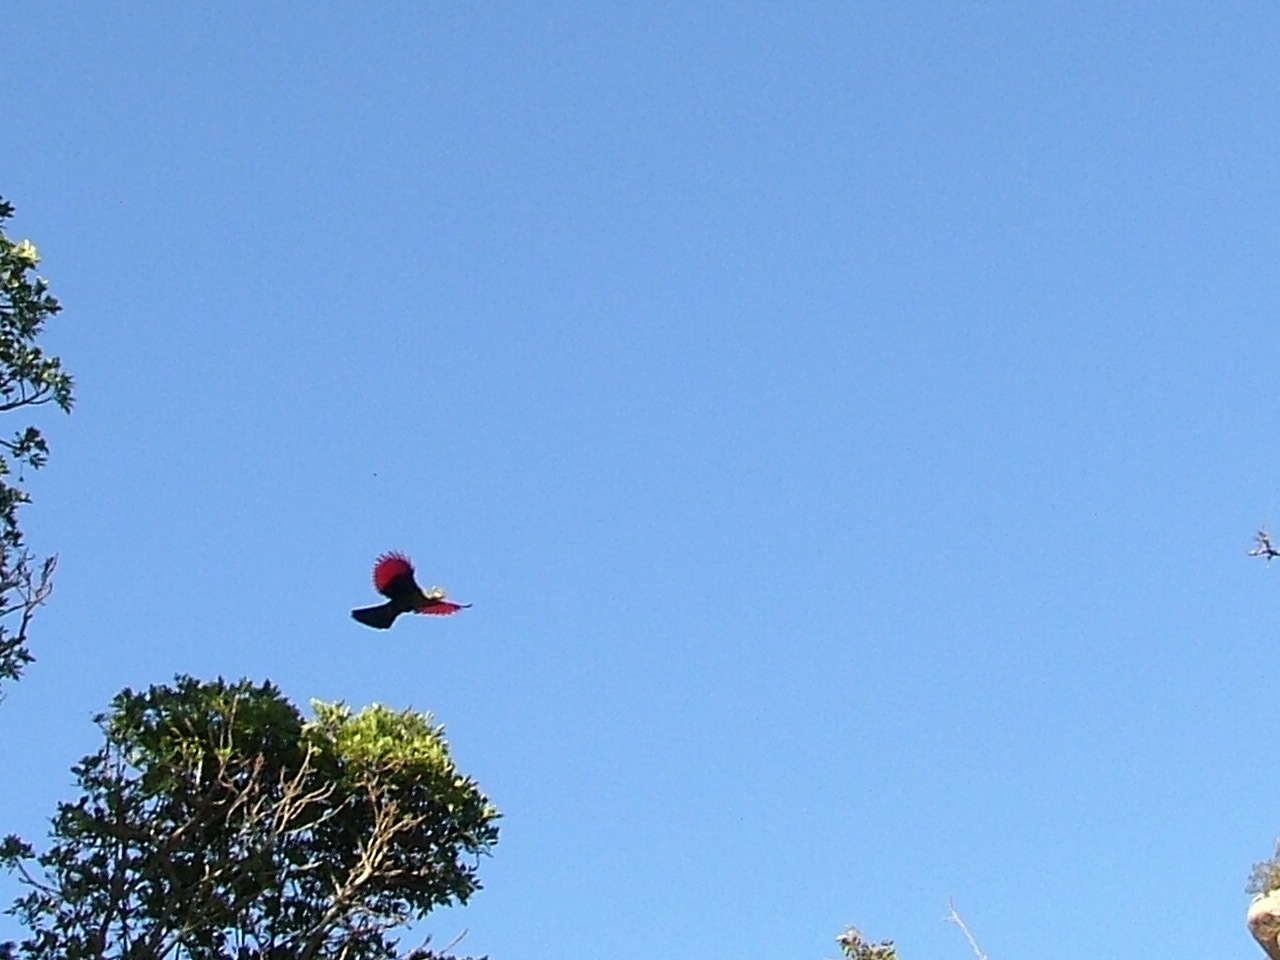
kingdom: Animalia
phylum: Chordata
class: Aves
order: Musophagiformes
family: Musophagidae
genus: Tauraco
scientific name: Tauraco corythaix
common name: Knysna turaco
